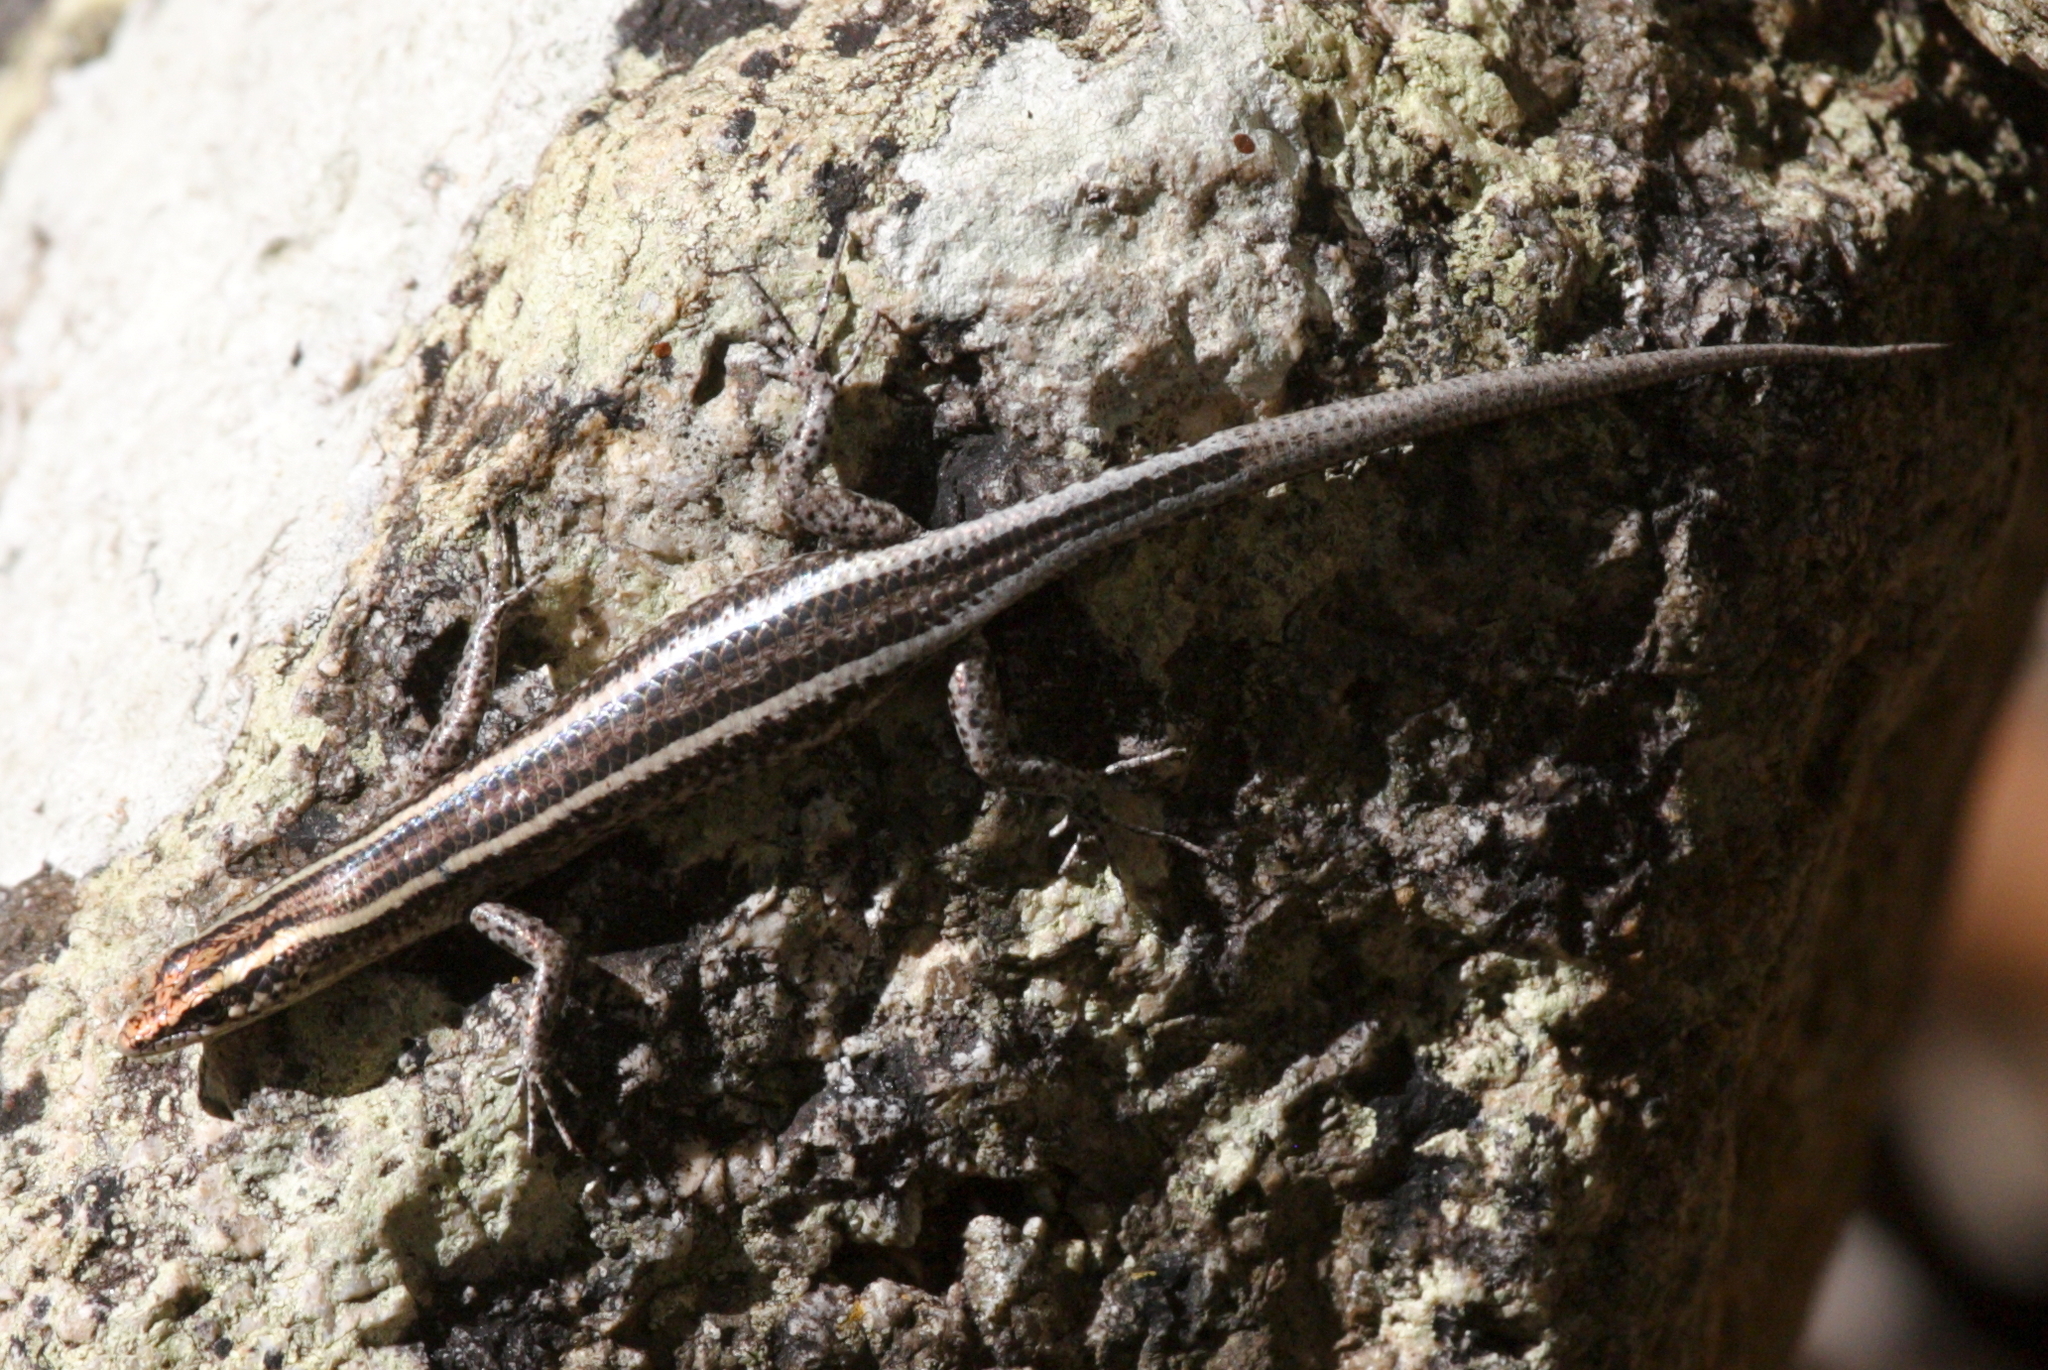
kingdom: Animalia
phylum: Chordata
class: Squamata
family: Scincidae
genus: Cryptoblepharus
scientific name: Cryptoblepharus pulcher
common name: Elegant snake-eyed skink
